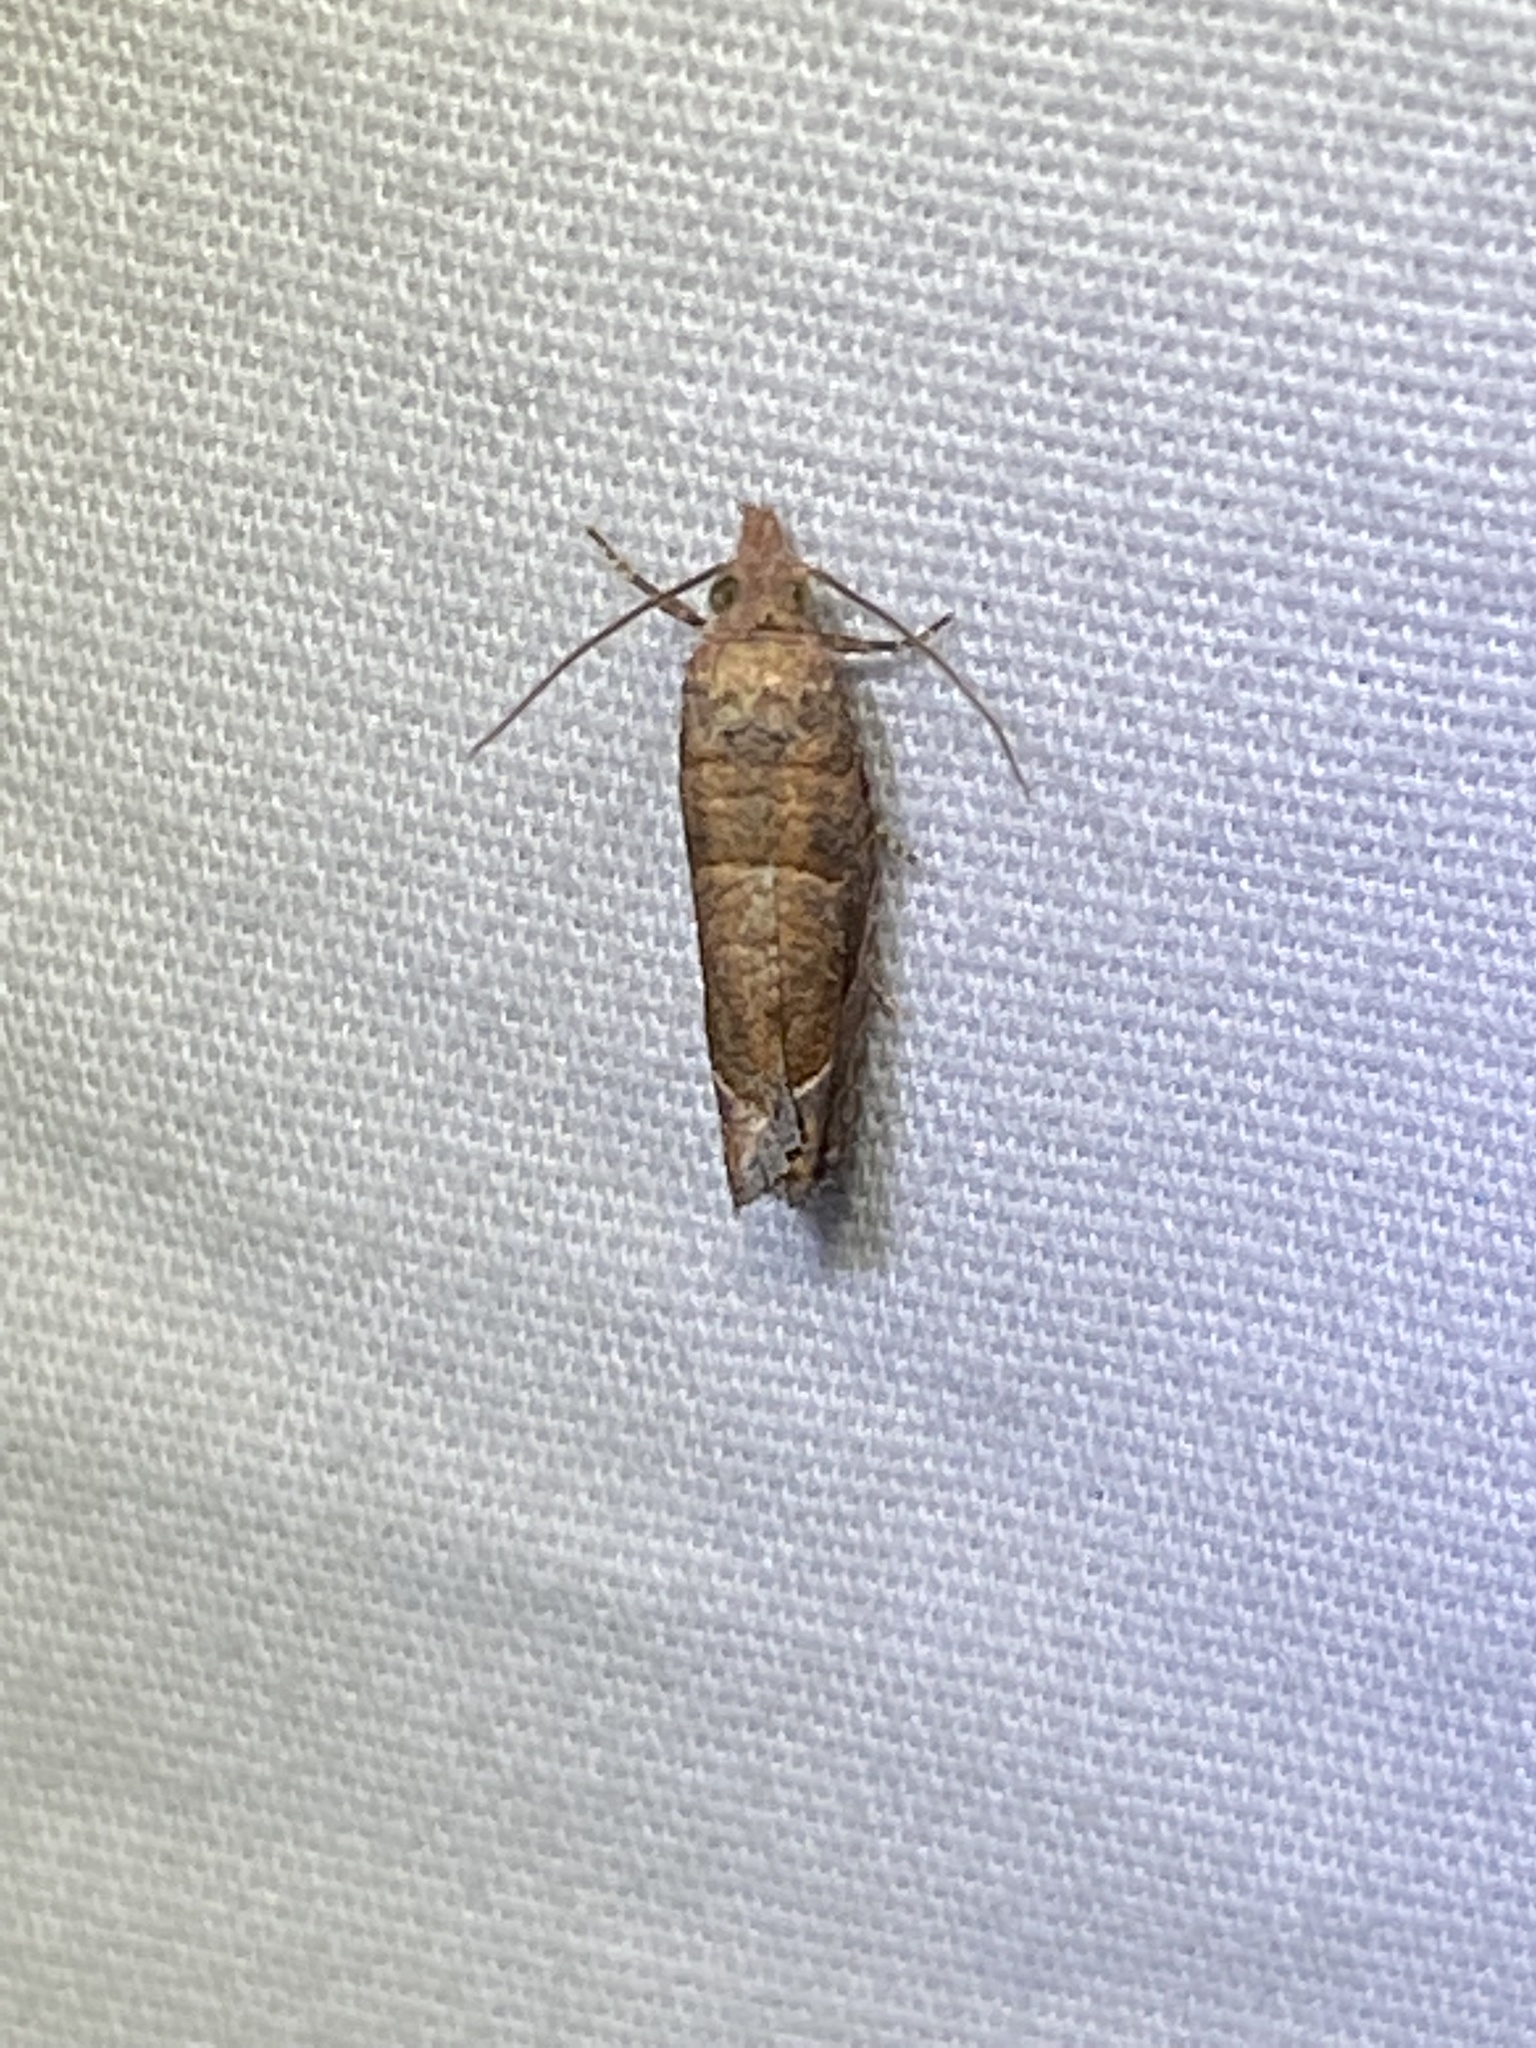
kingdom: Animalia
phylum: Arthropoda
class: Insecta
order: Lepidoptera
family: Tortricidae
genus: Pelochrista
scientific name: Pelochrista derelicta
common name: Derelict pelochrista moth
